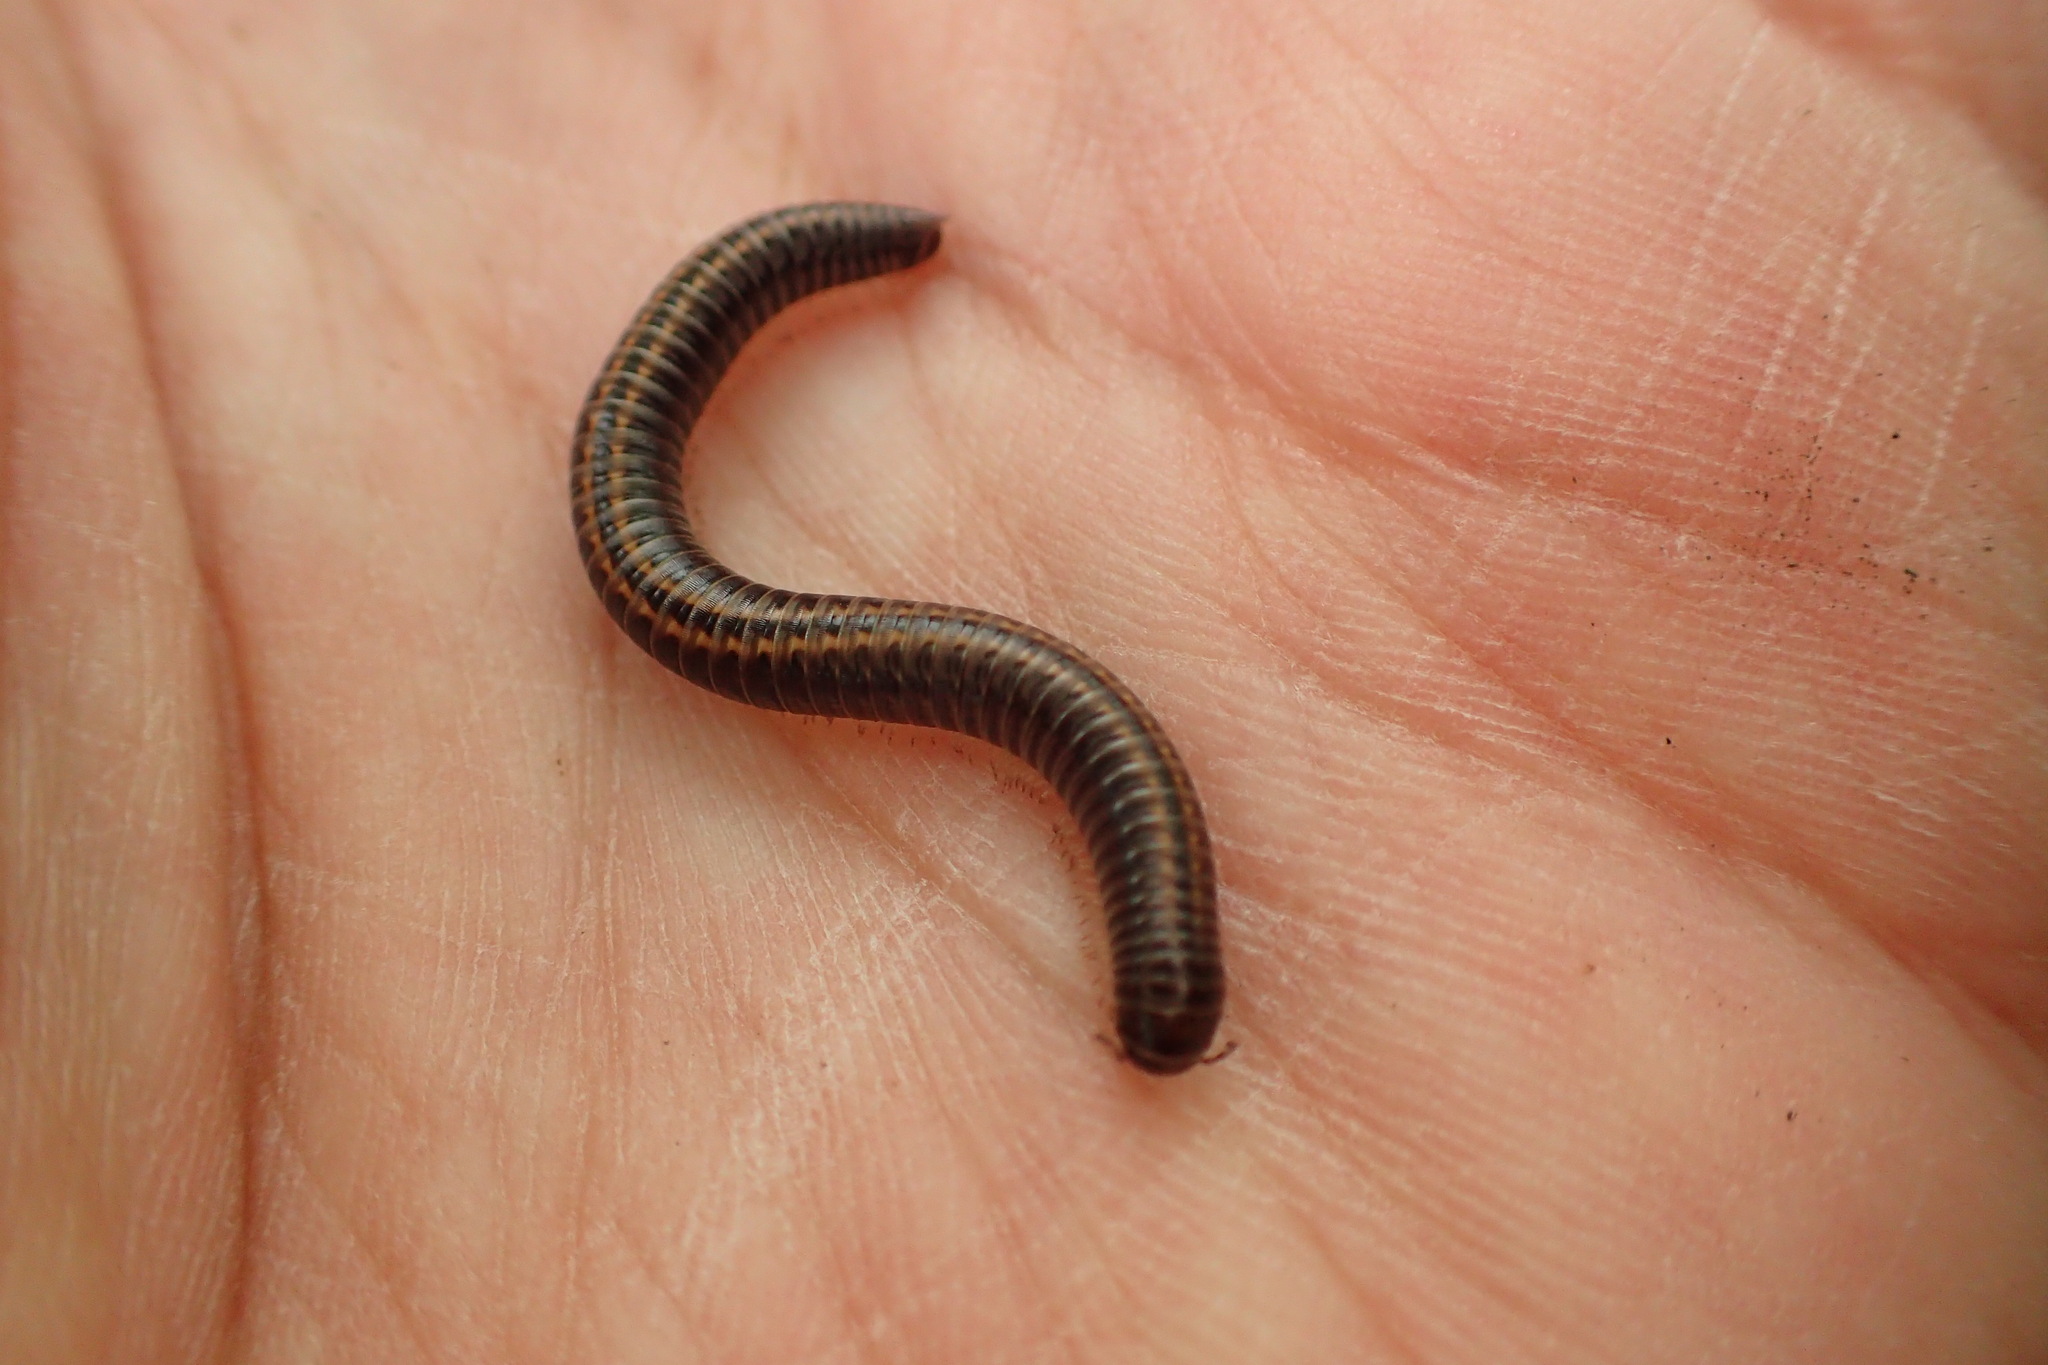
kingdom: Animalia
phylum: Arthropoda
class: Diplopoda
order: Julida
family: Julidae
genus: Ommatoiulus
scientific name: Ommatoiulus sabulosus
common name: Striped millipede
